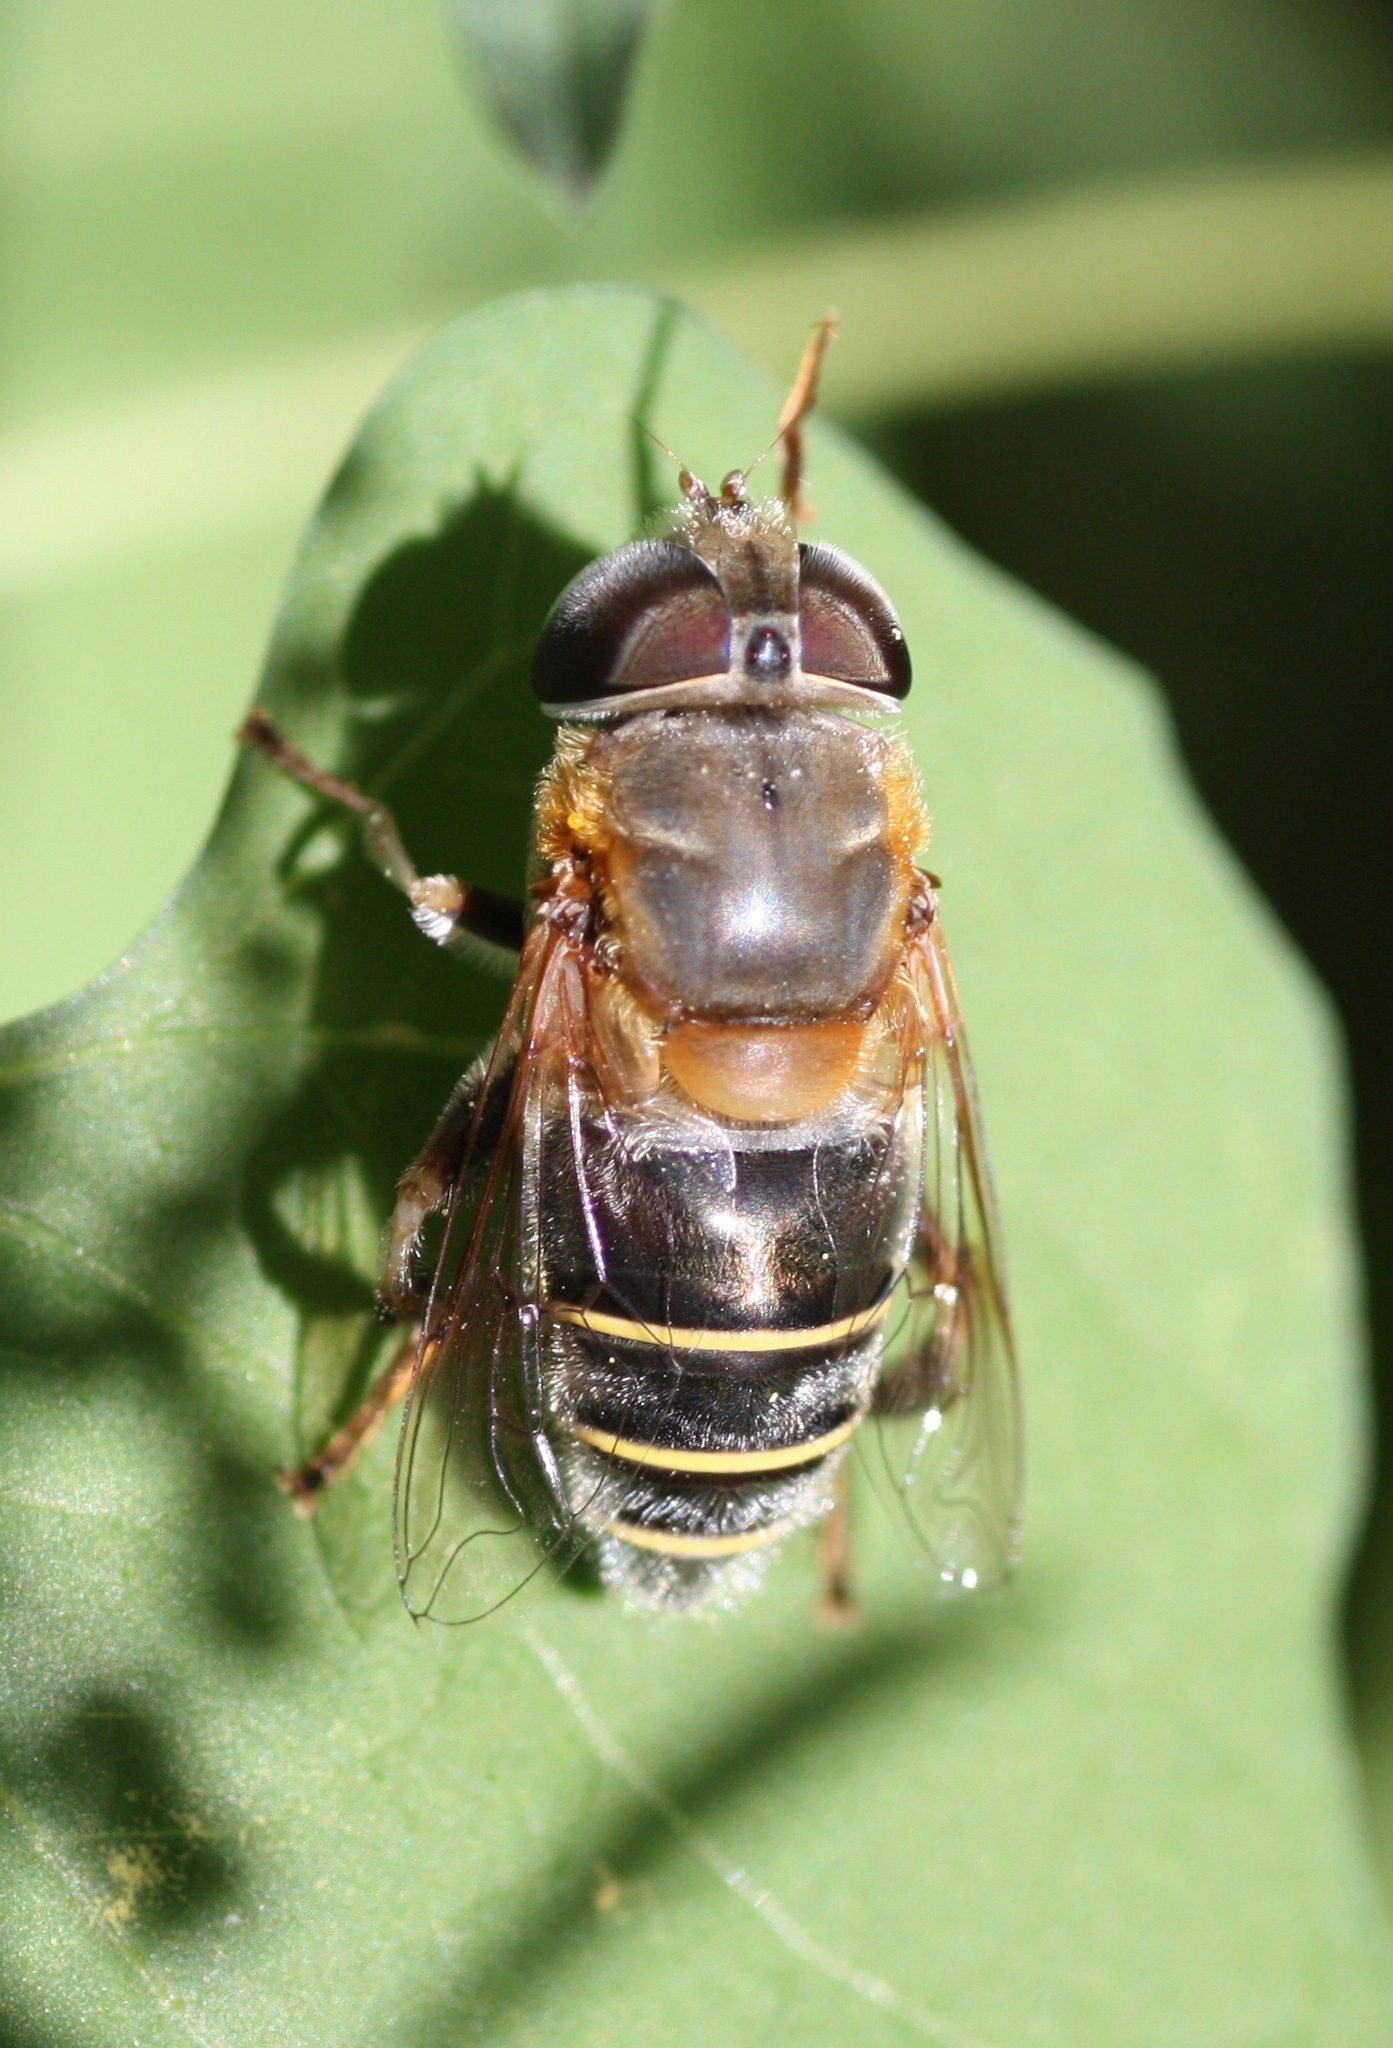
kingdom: Animalia
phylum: Arthropoda
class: Insecta
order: Diptera
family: Syrphidae
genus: Palpada
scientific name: Palpada mexicana
